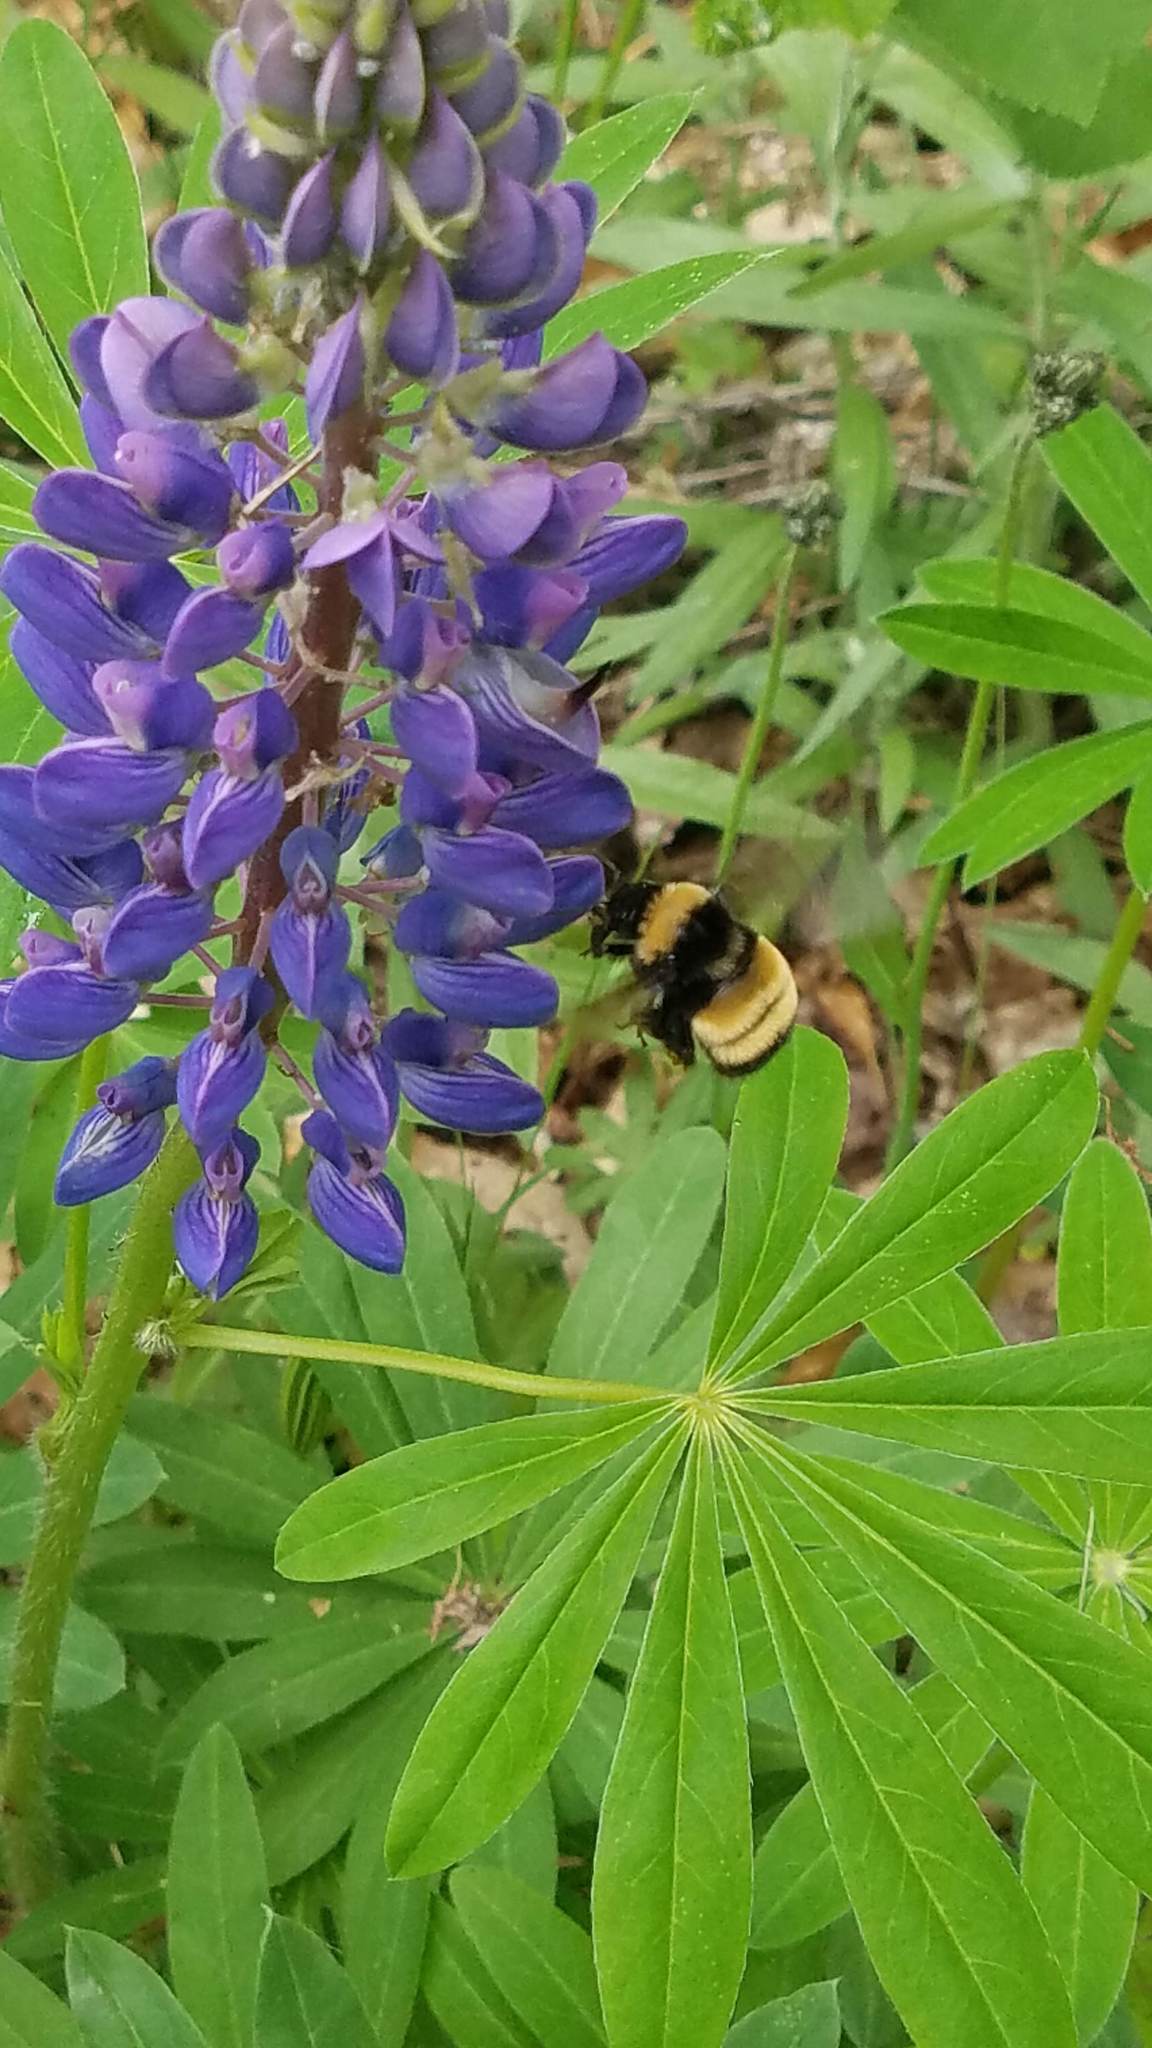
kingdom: Animalia
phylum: Arthropoda
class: Insecta
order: Hymenoptera
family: Apidae
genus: Bombus
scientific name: Bombus terricola
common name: Yellow-banded bumble bee
